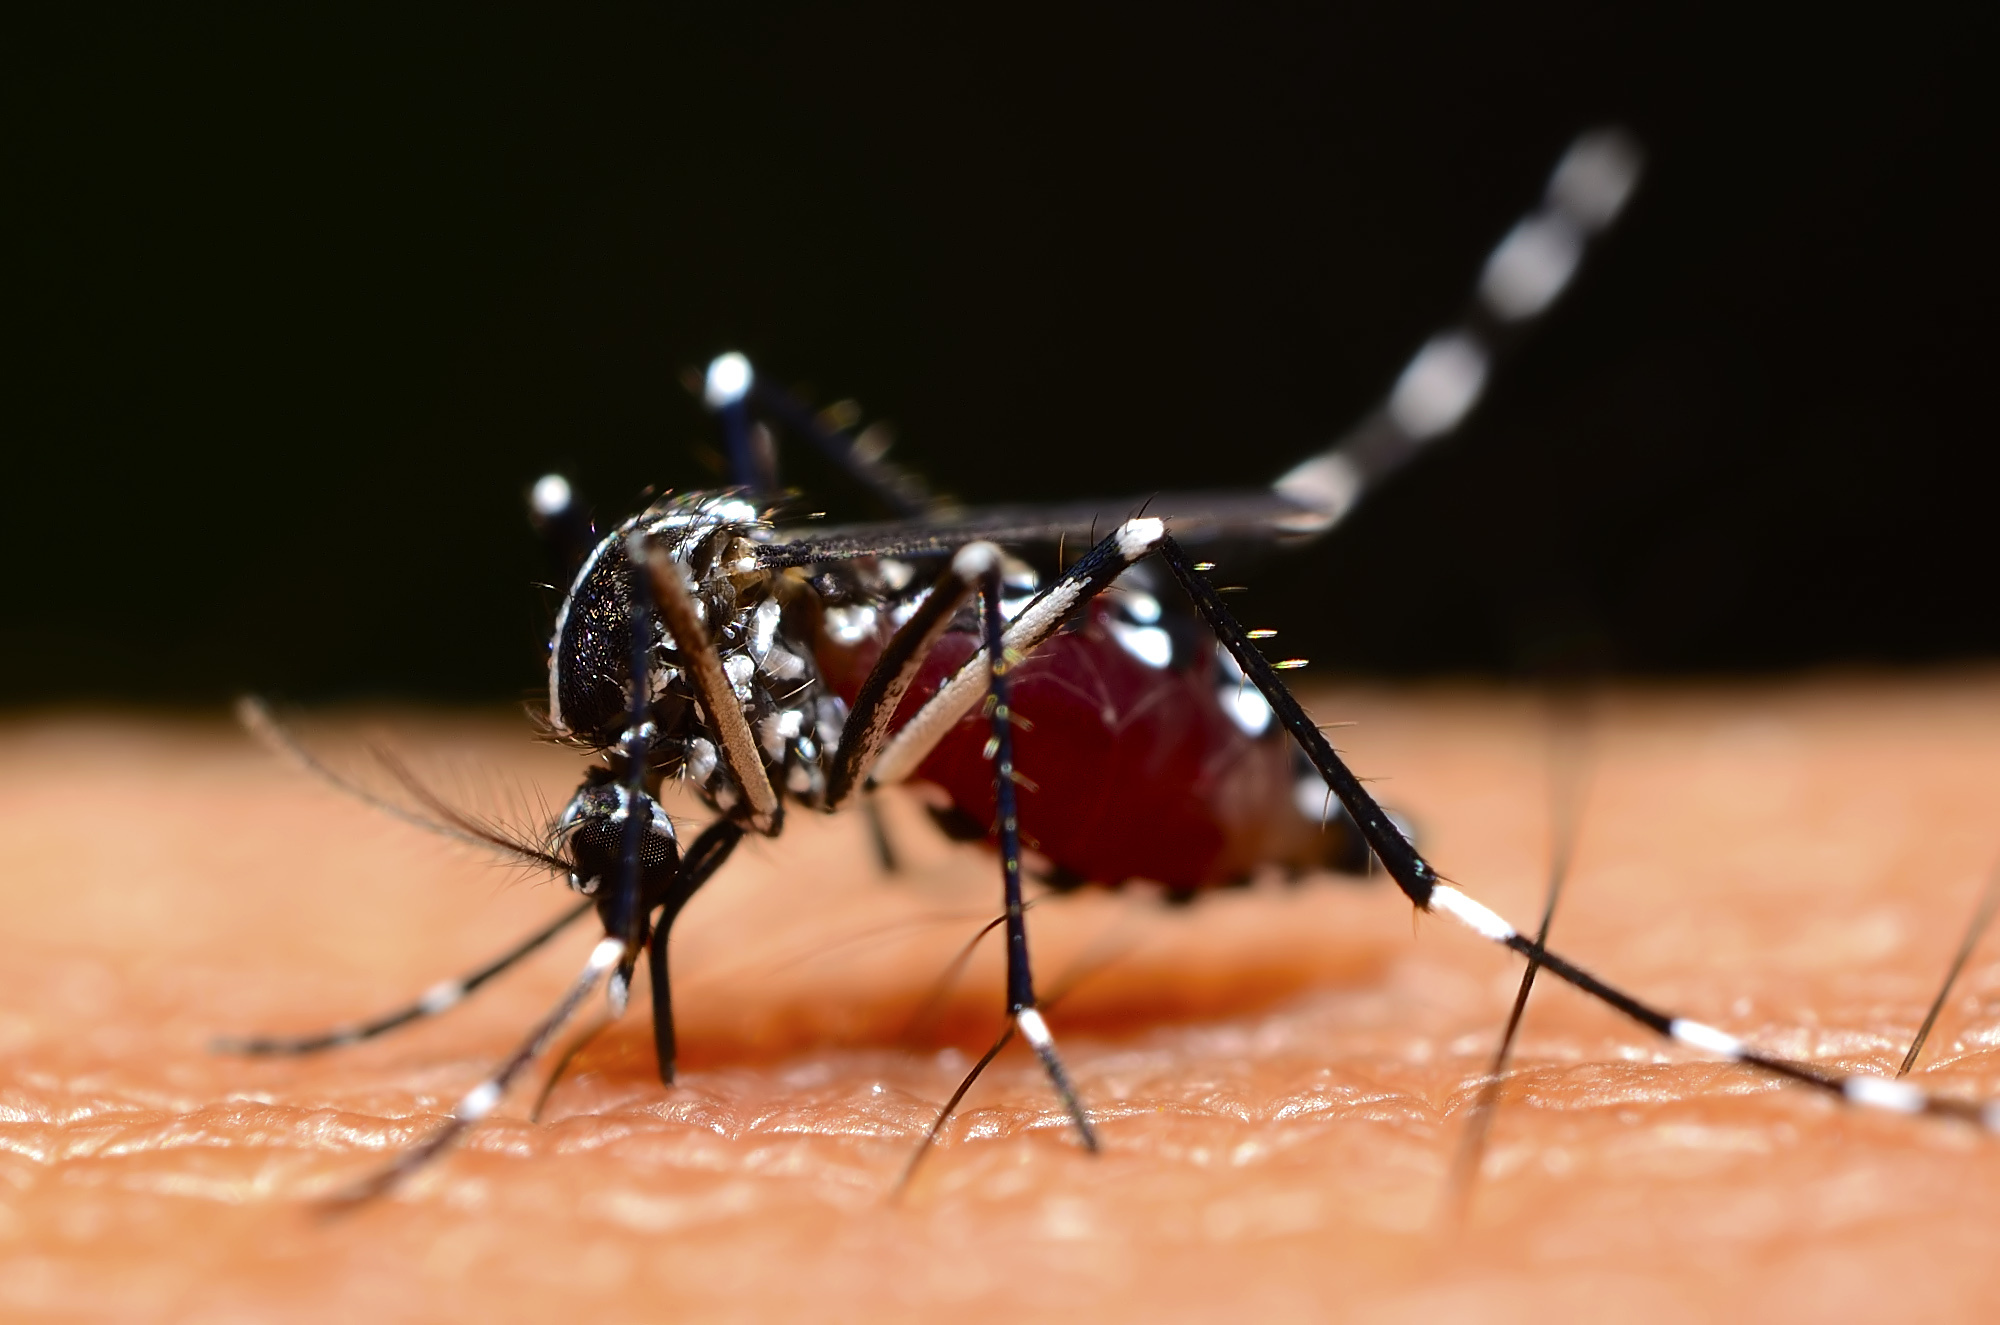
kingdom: Animalia
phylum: Arthropoda
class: Insecta
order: Diptera
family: Culicidae
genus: Aedes
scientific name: Aedes albopictus
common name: Tiger mosquito
